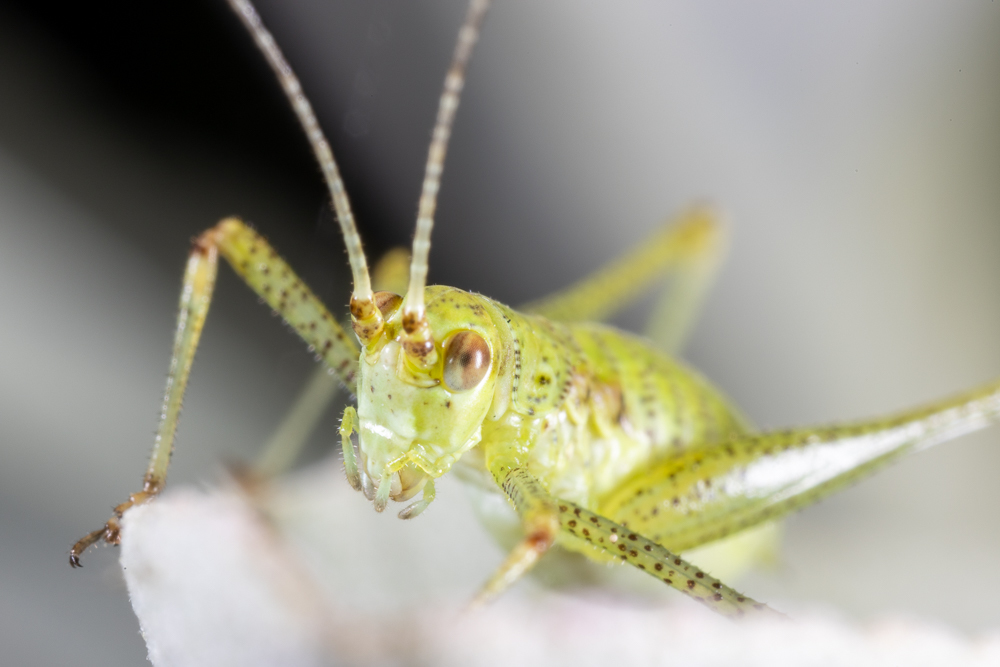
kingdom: Animalia
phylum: Arthropoda
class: Insecta
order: Orthoptera
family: Tettigoniidae
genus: Phaneroptera
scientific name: Phaneroptera nana
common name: Southern sickle bush-cricket
